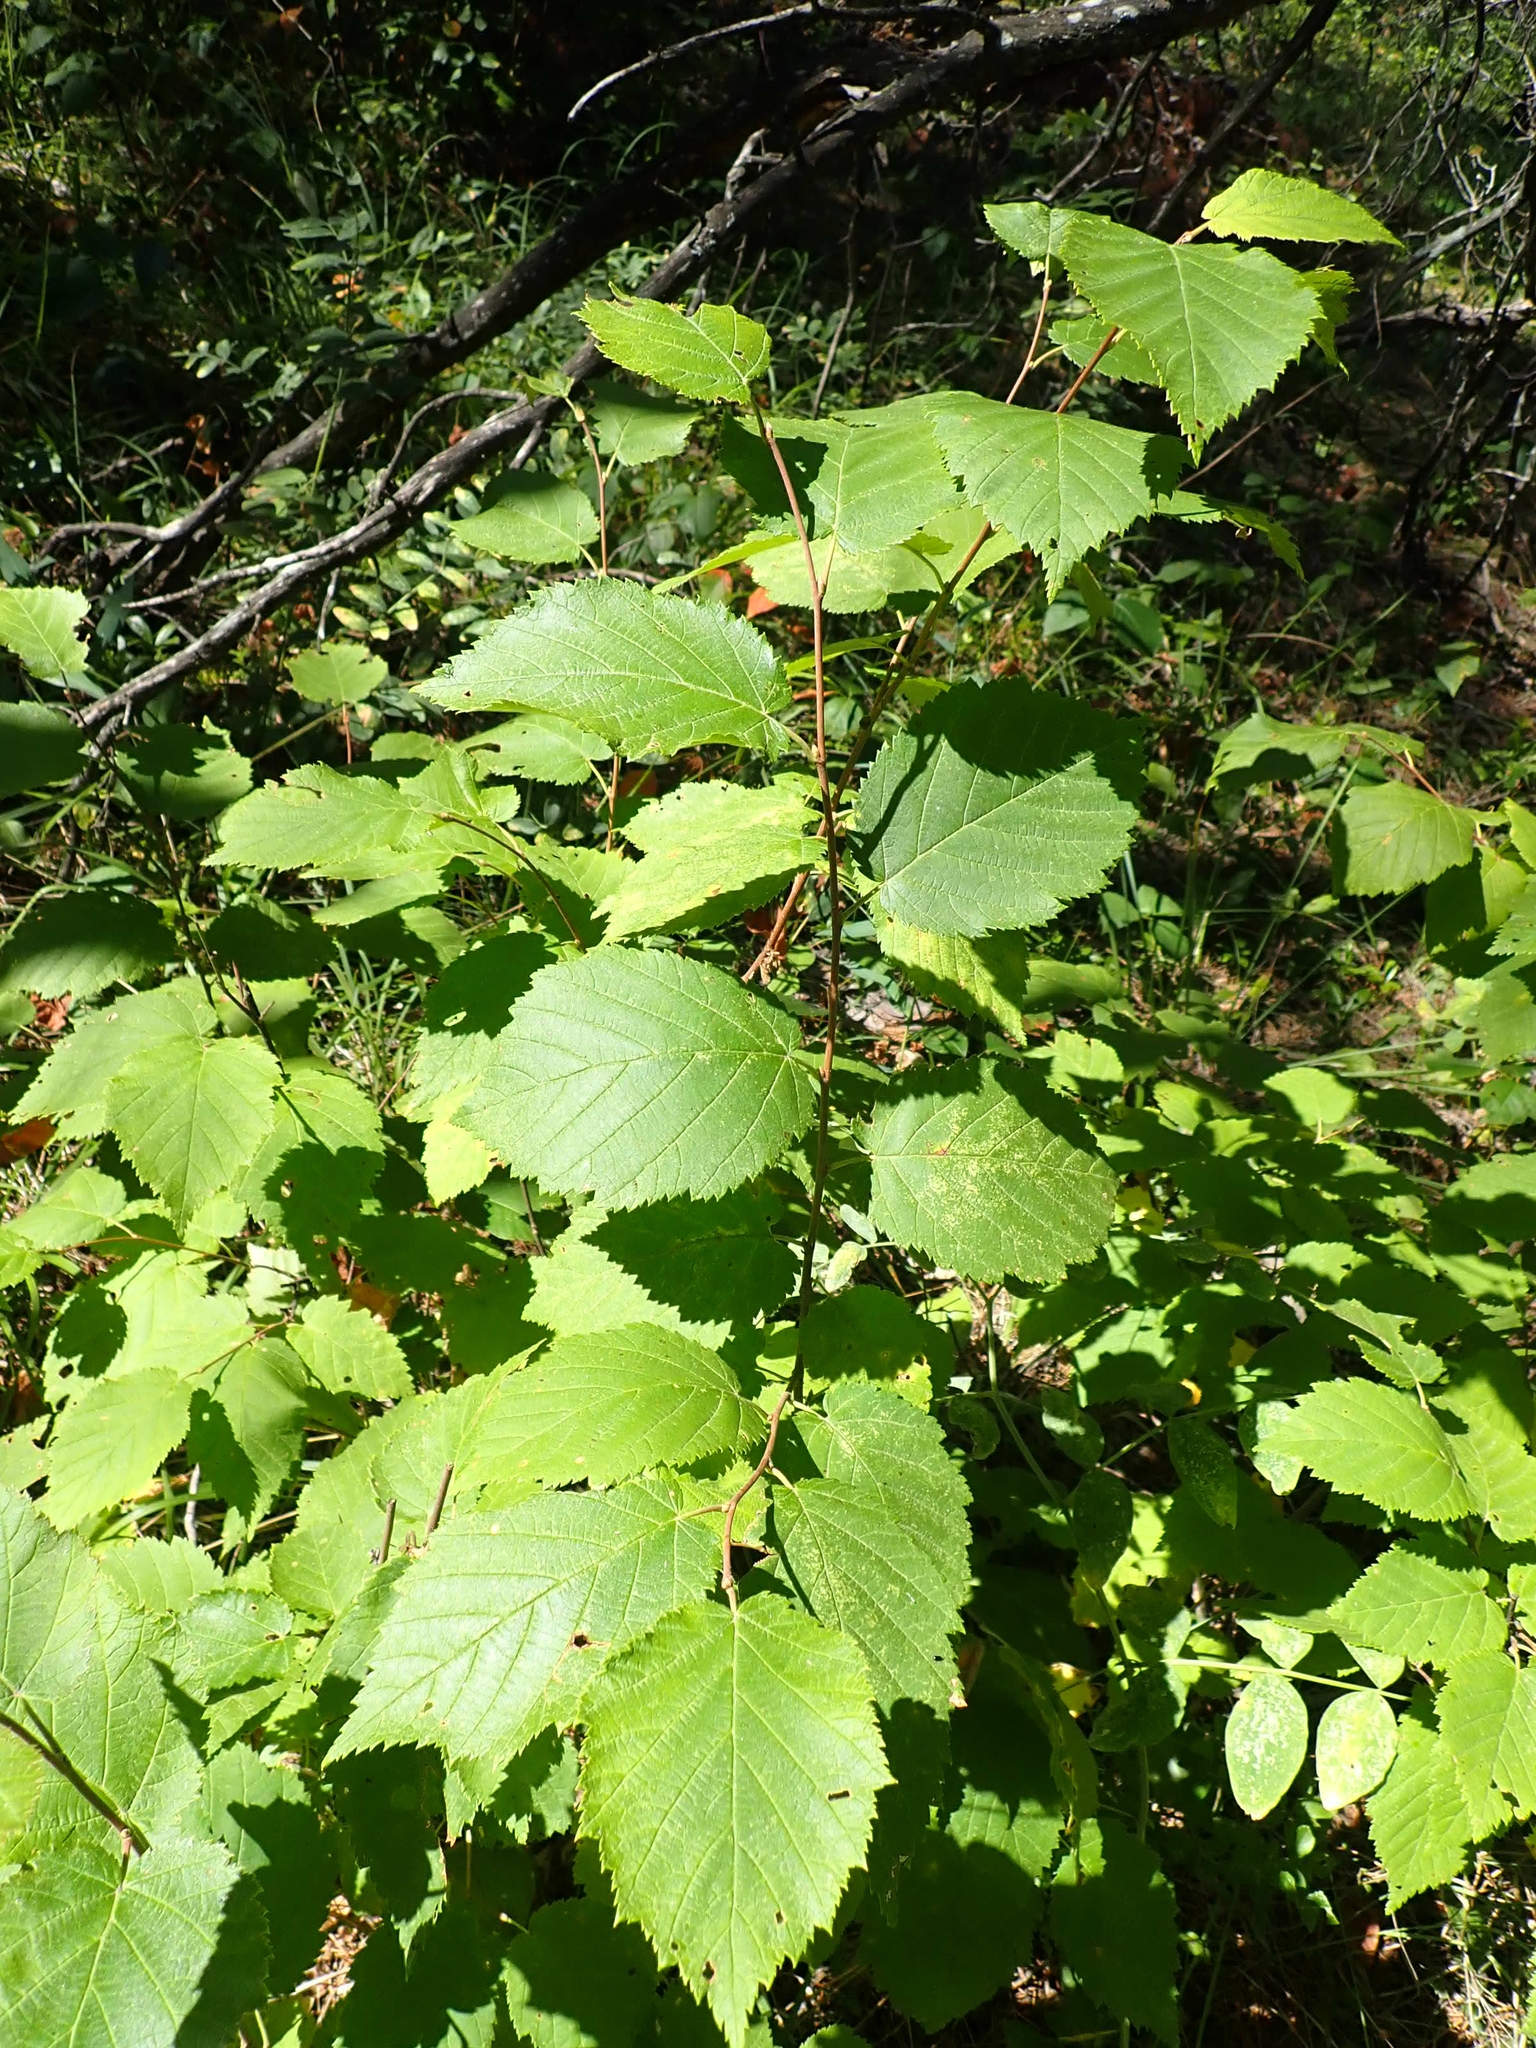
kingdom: Plantae
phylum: Tracheophyta
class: Magnoliopsida
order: Fagales
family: Betulaceae
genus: Corylus
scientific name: Corylus cornuta
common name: Beaked hazel
